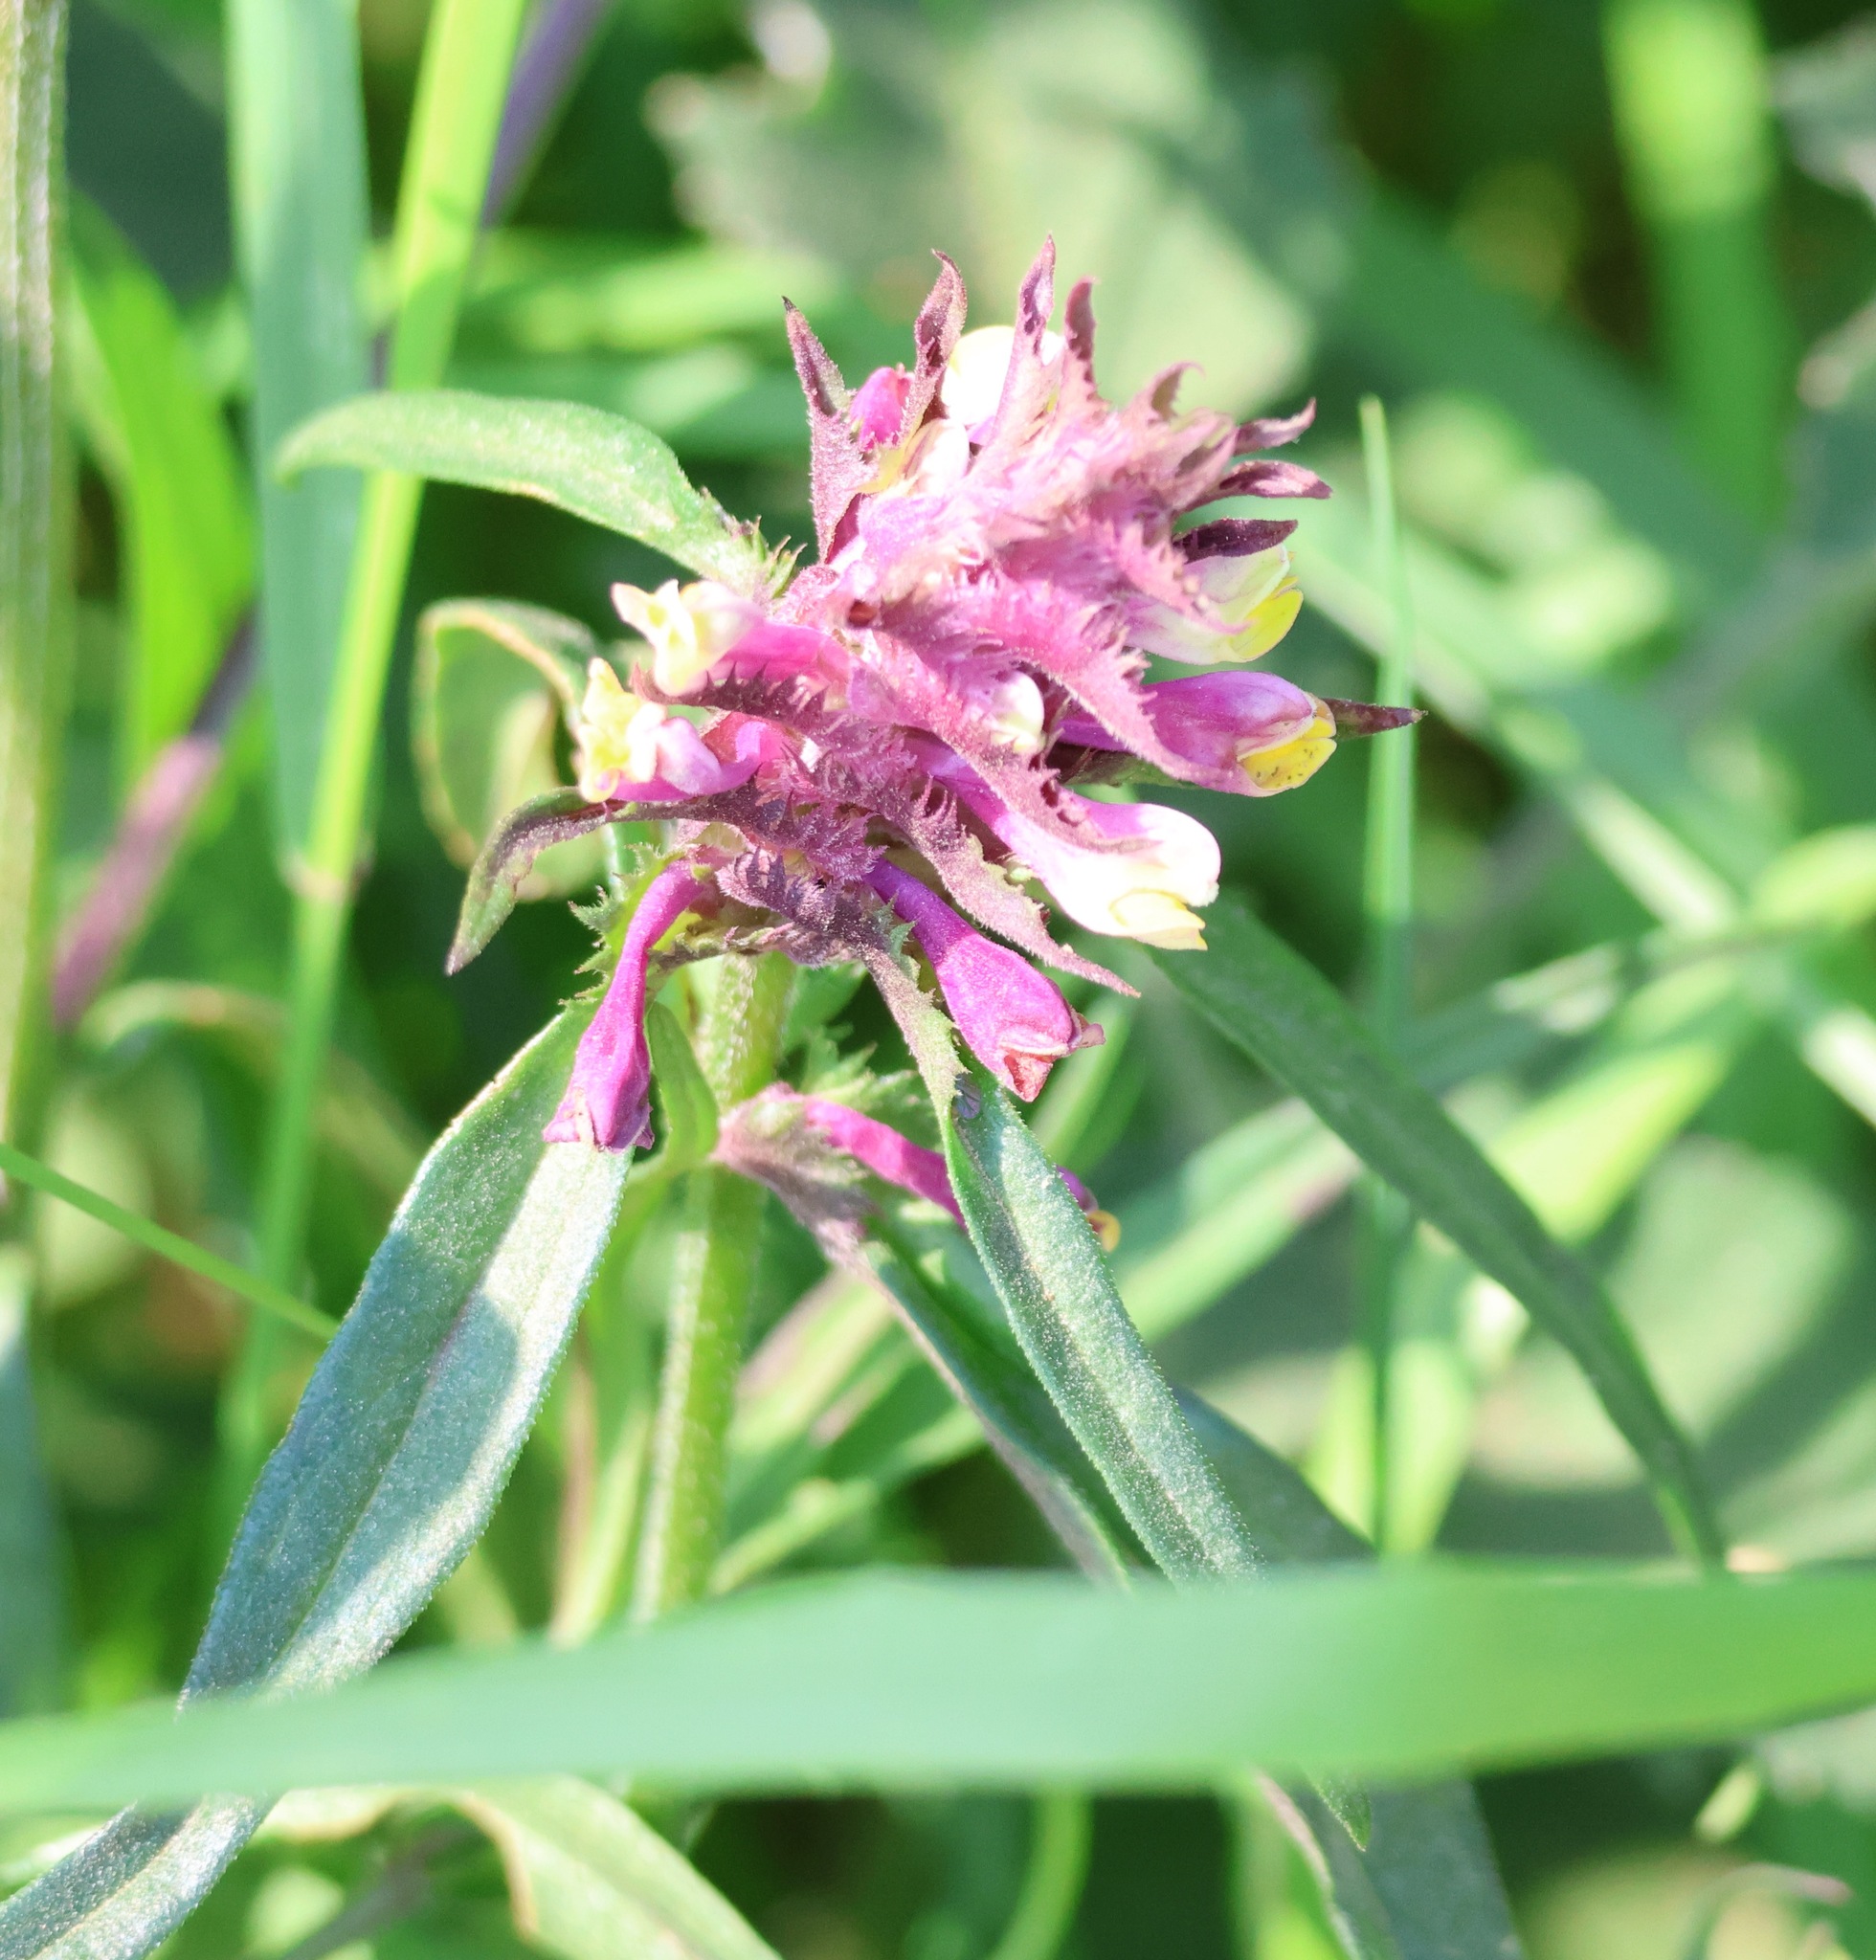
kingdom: Plantae
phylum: Tracheophyta
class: Magnoliopsida
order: Lamiales
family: Orobanchaceae
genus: Melampyrum
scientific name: Melampyrum cristatum
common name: Crested cow-wheat
